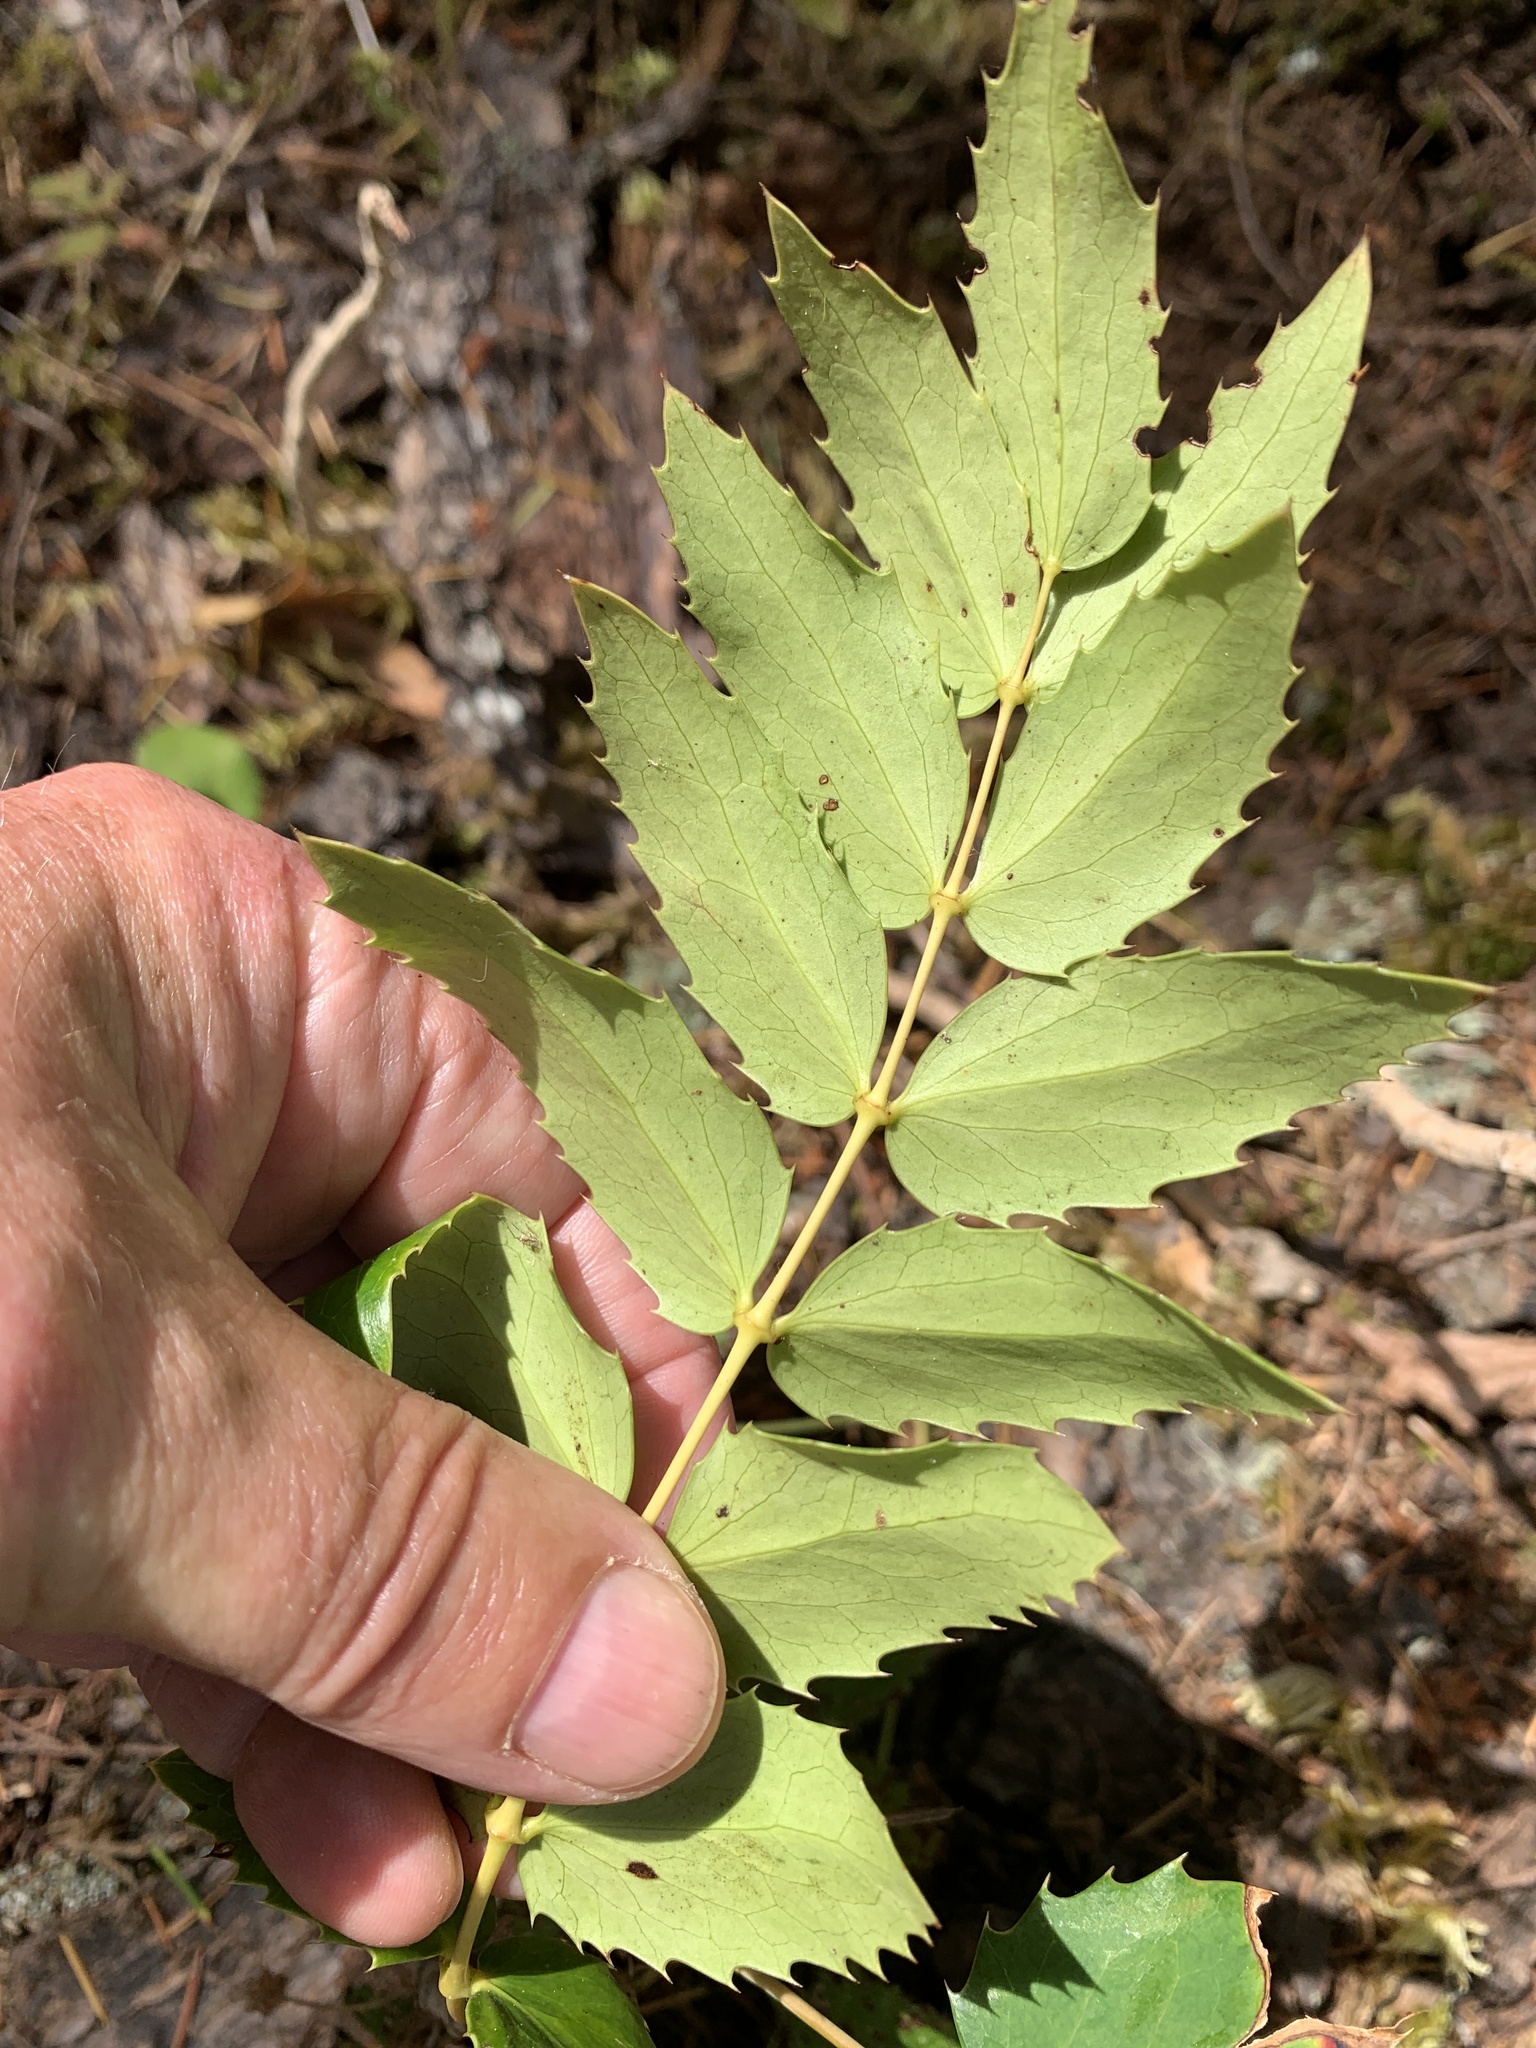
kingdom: Plantae
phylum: Tracheophyta
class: Magnoliopsida
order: Ranunculales
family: Berberidaceae
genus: Mahonia
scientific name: Mahonia nervosa
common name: Cascade oregon-grape
